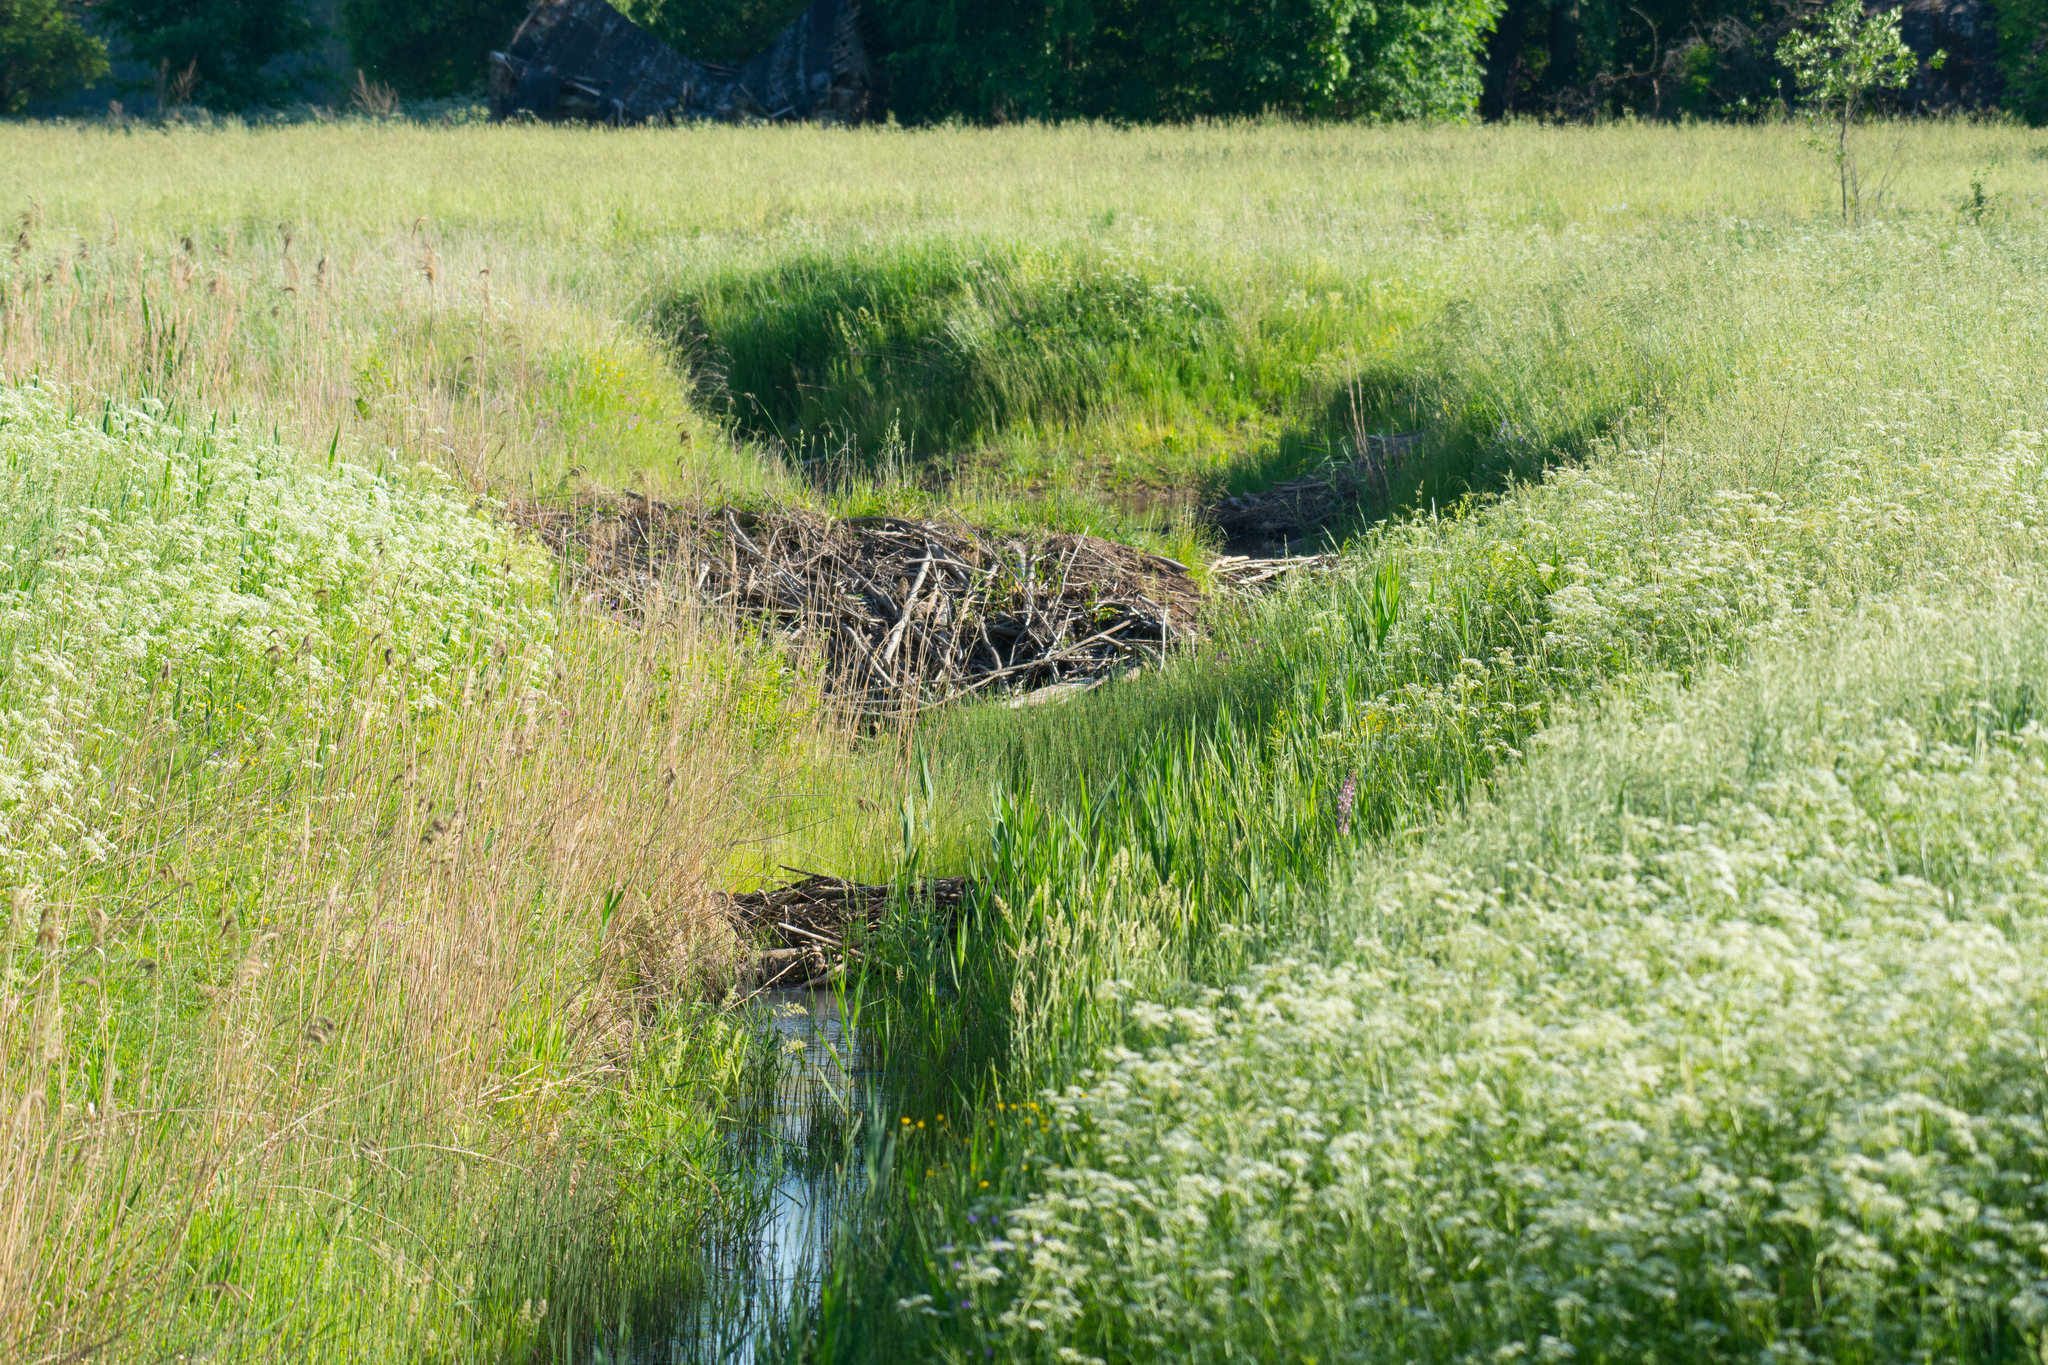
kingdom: Animalia
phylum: Chordata
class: Mammalia
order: Rodentia
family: Castoridae
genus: Castor
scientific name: Castor fiber
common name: Eurasian beaver
